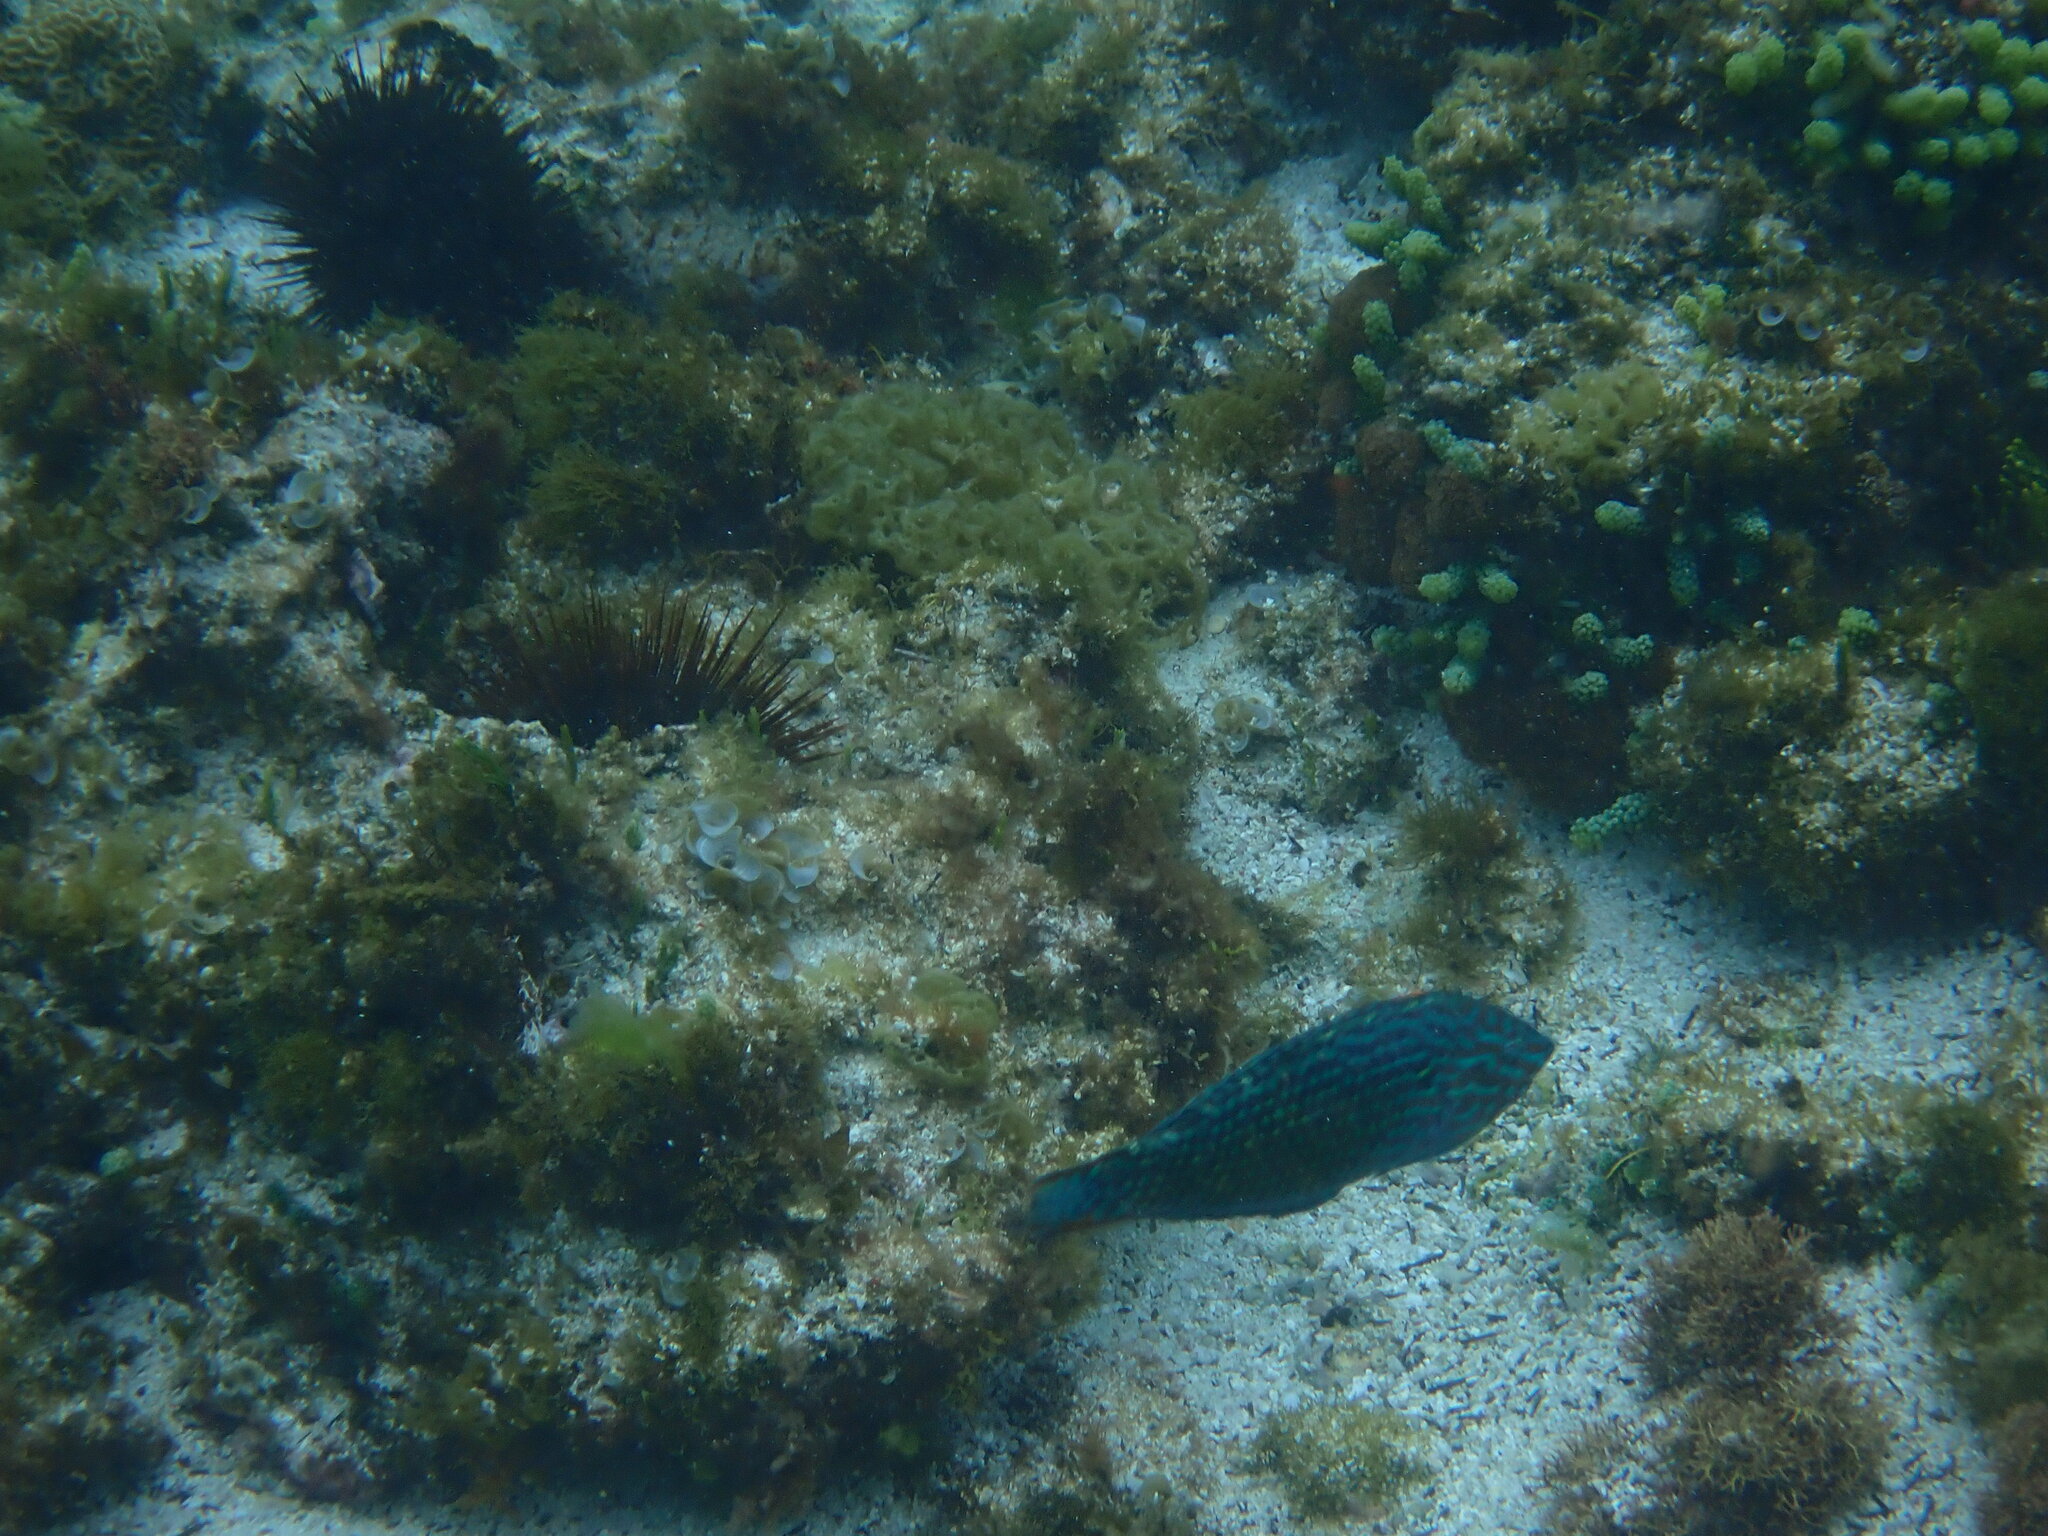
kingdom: Animalia
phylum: Chordata
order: Perciformes
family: Labridae
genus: Macropharyngodon
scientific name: Macropharyngodon meleagris
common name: Leopard wrasse
